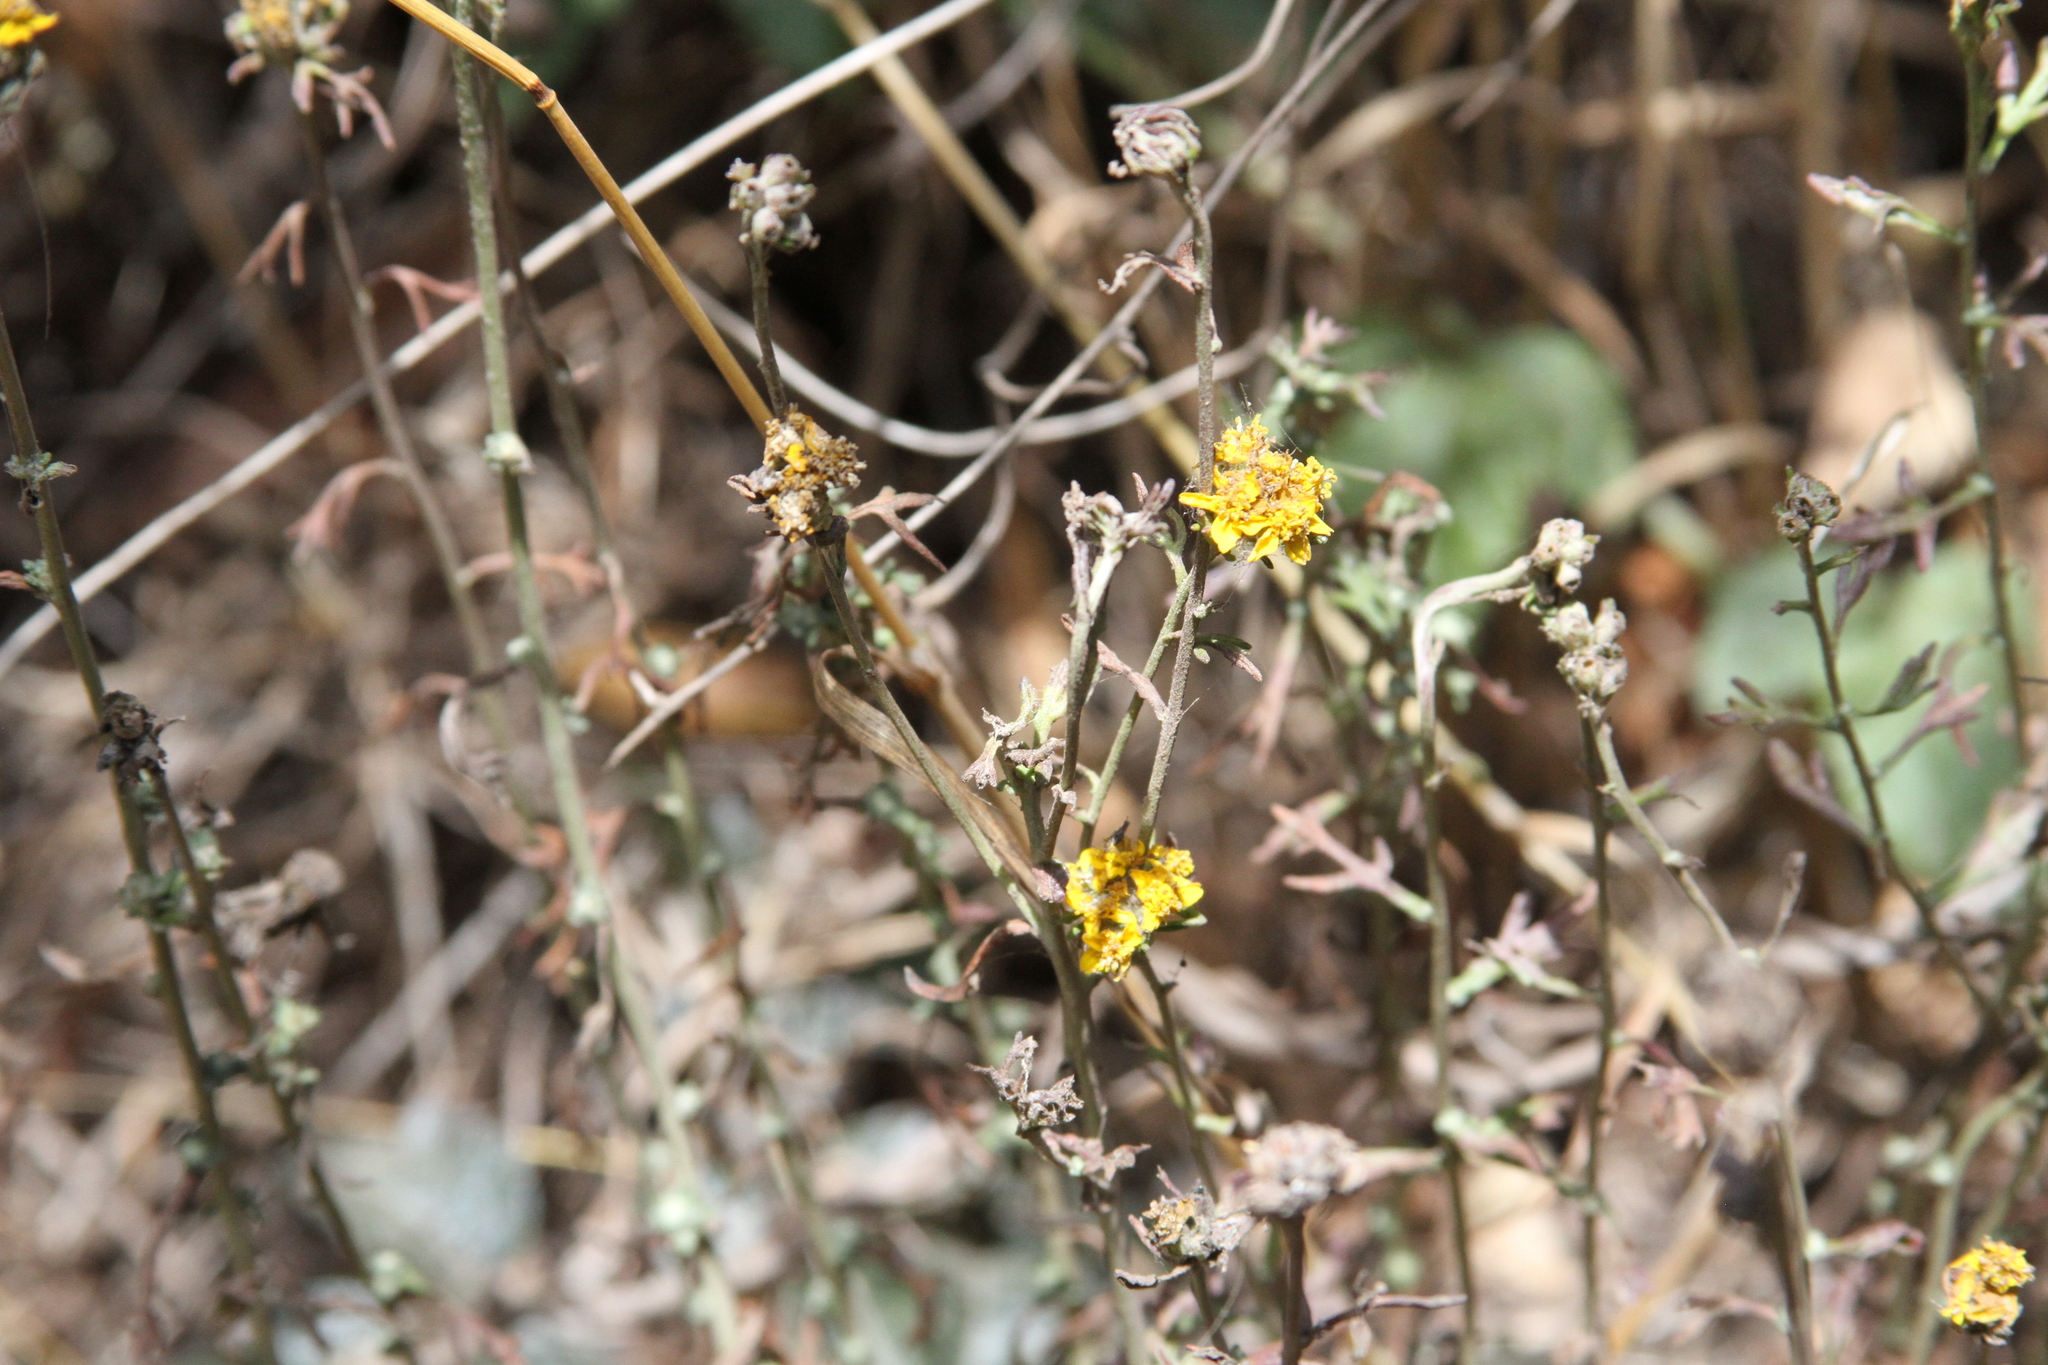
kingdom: Plantae
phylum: Tracheophyta
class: Magnoliopsida
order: Asterales
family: Asteraceae
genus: Eriophyllum
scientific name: Eriophyllum confertiflorum
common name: Golden-yarrow
